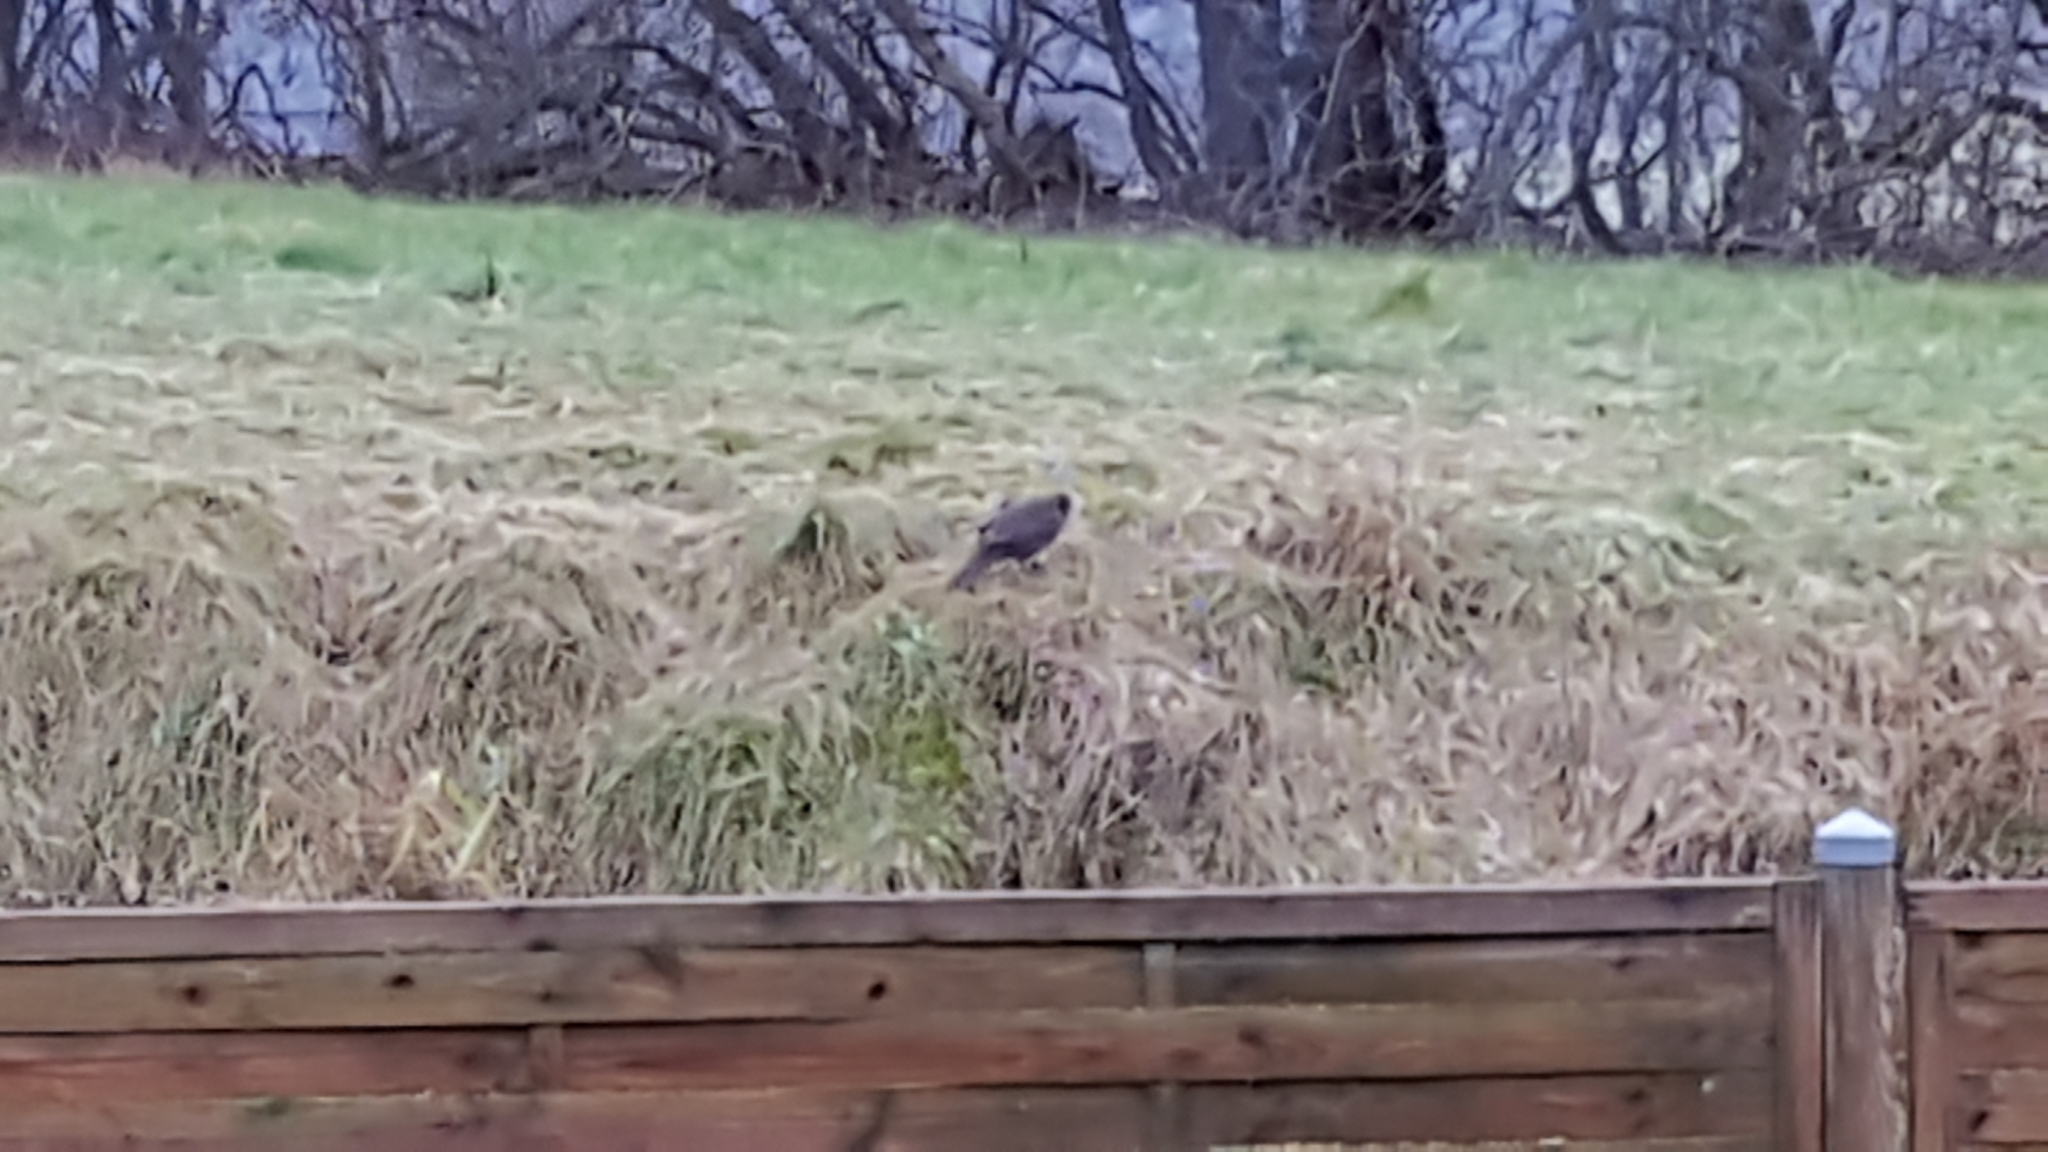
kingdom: Animalia
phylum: Chordata
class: Aves
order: Passeriformes
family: Turdidae
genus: Turdus
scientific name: Turdus merula
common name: Common blackbird
